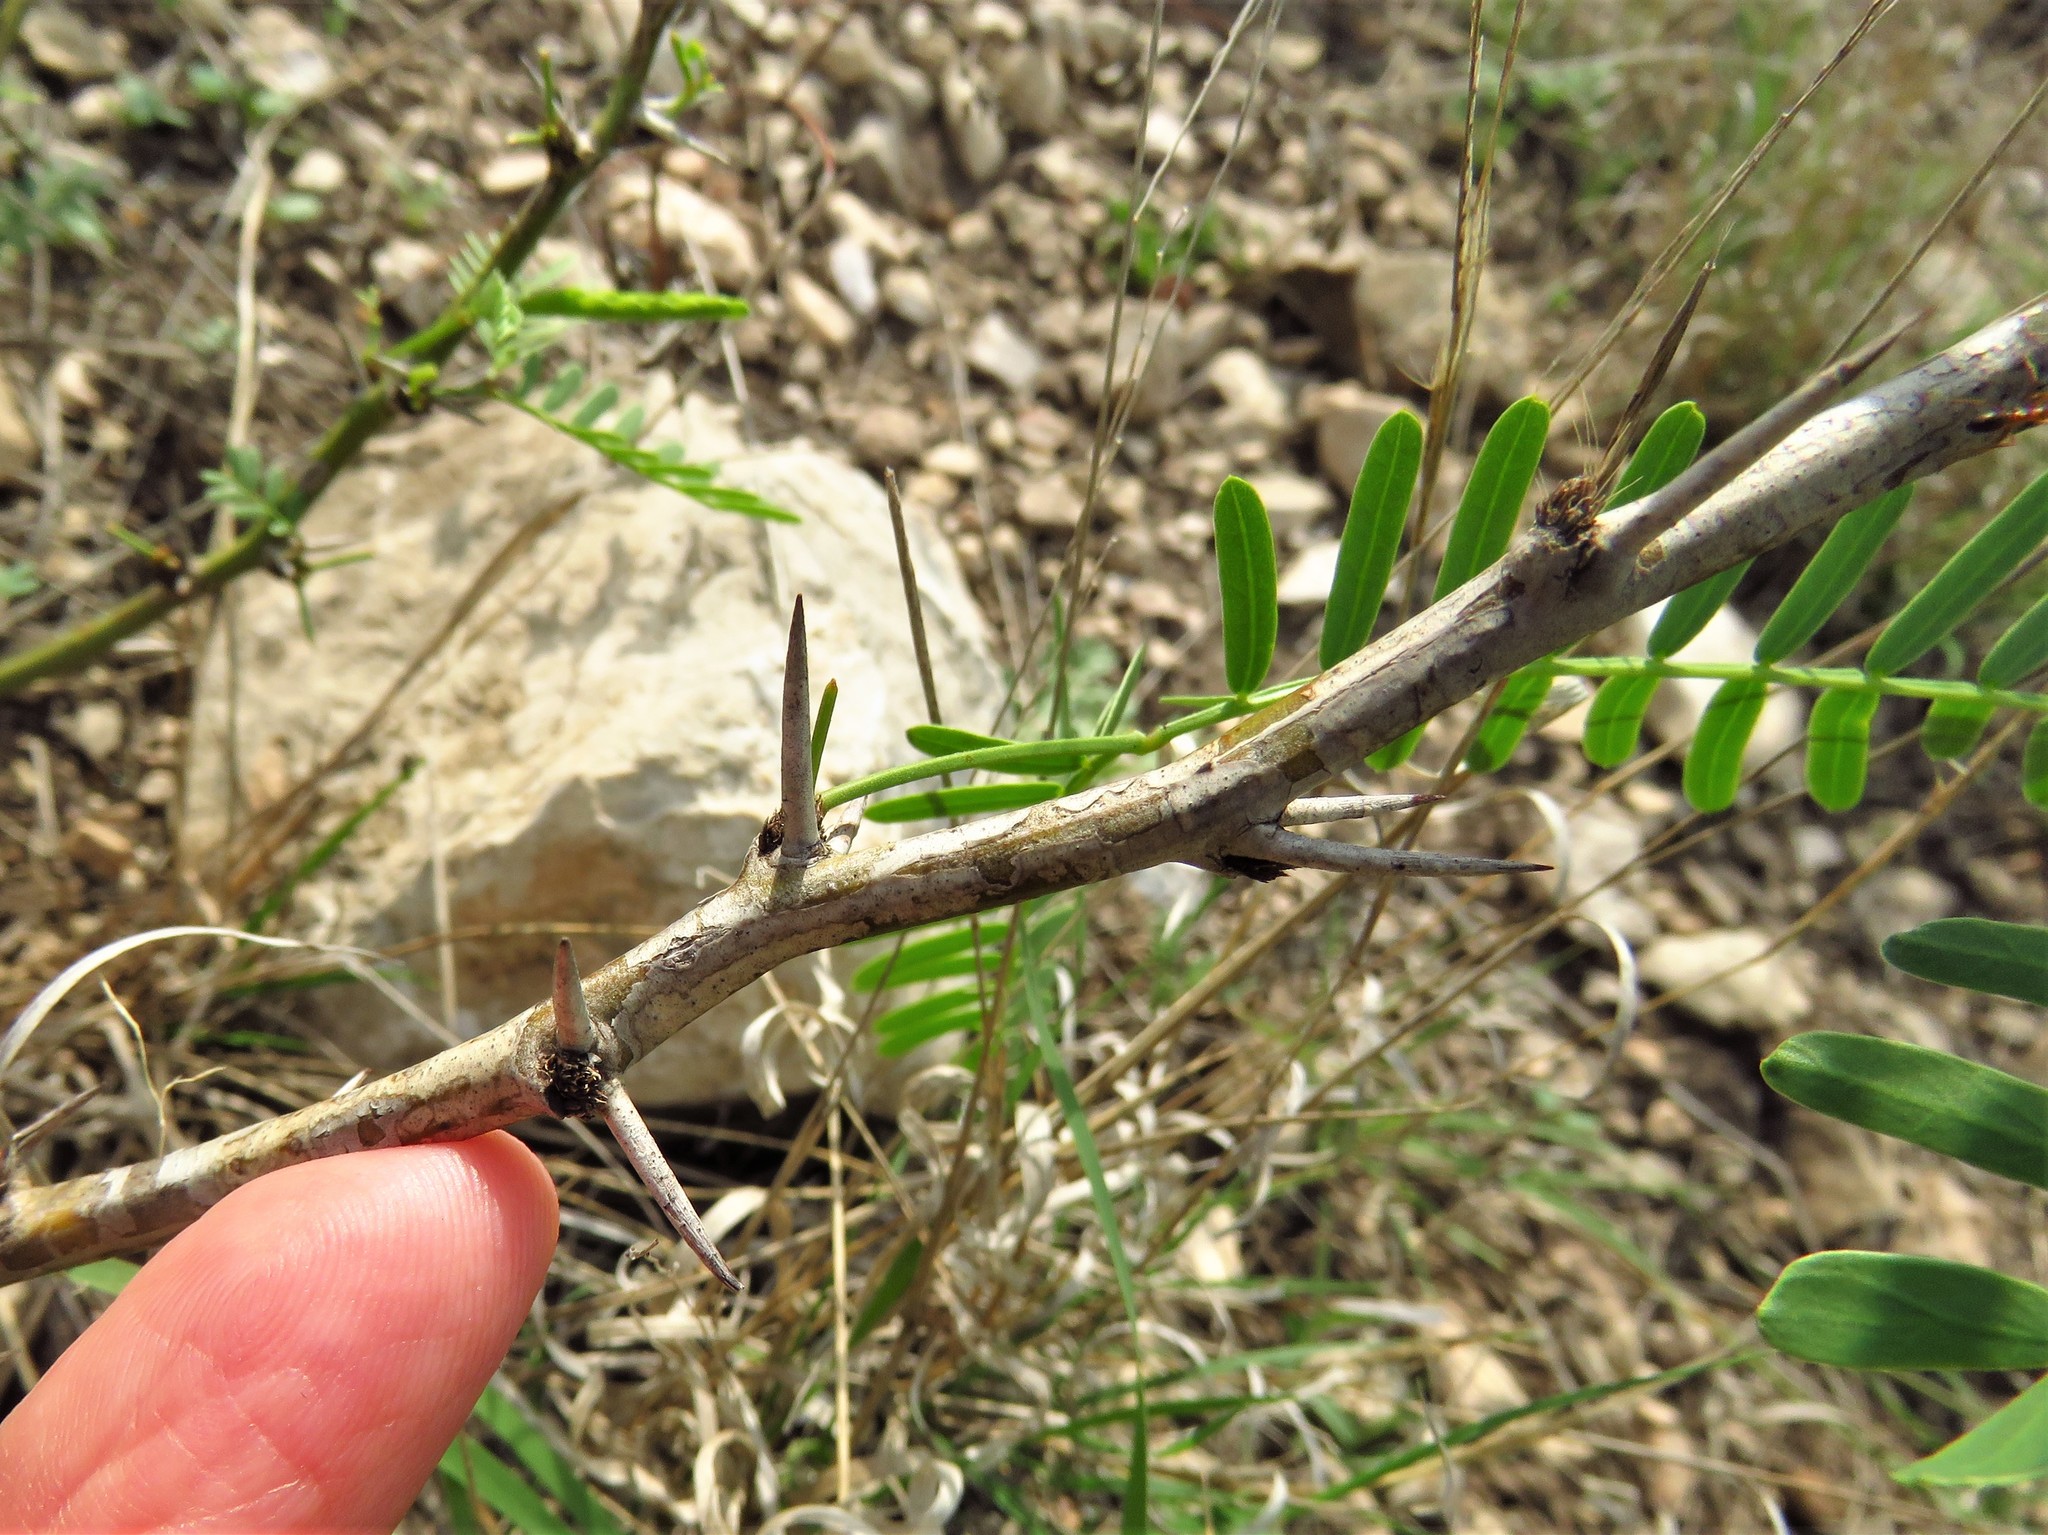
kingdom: Plantae
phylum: Tracheophyta
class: Magnoliopsida
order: Fabales
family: Fabaceae
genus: Prosopis
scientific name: Prosopis glandulosa
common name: Honey mesquite
